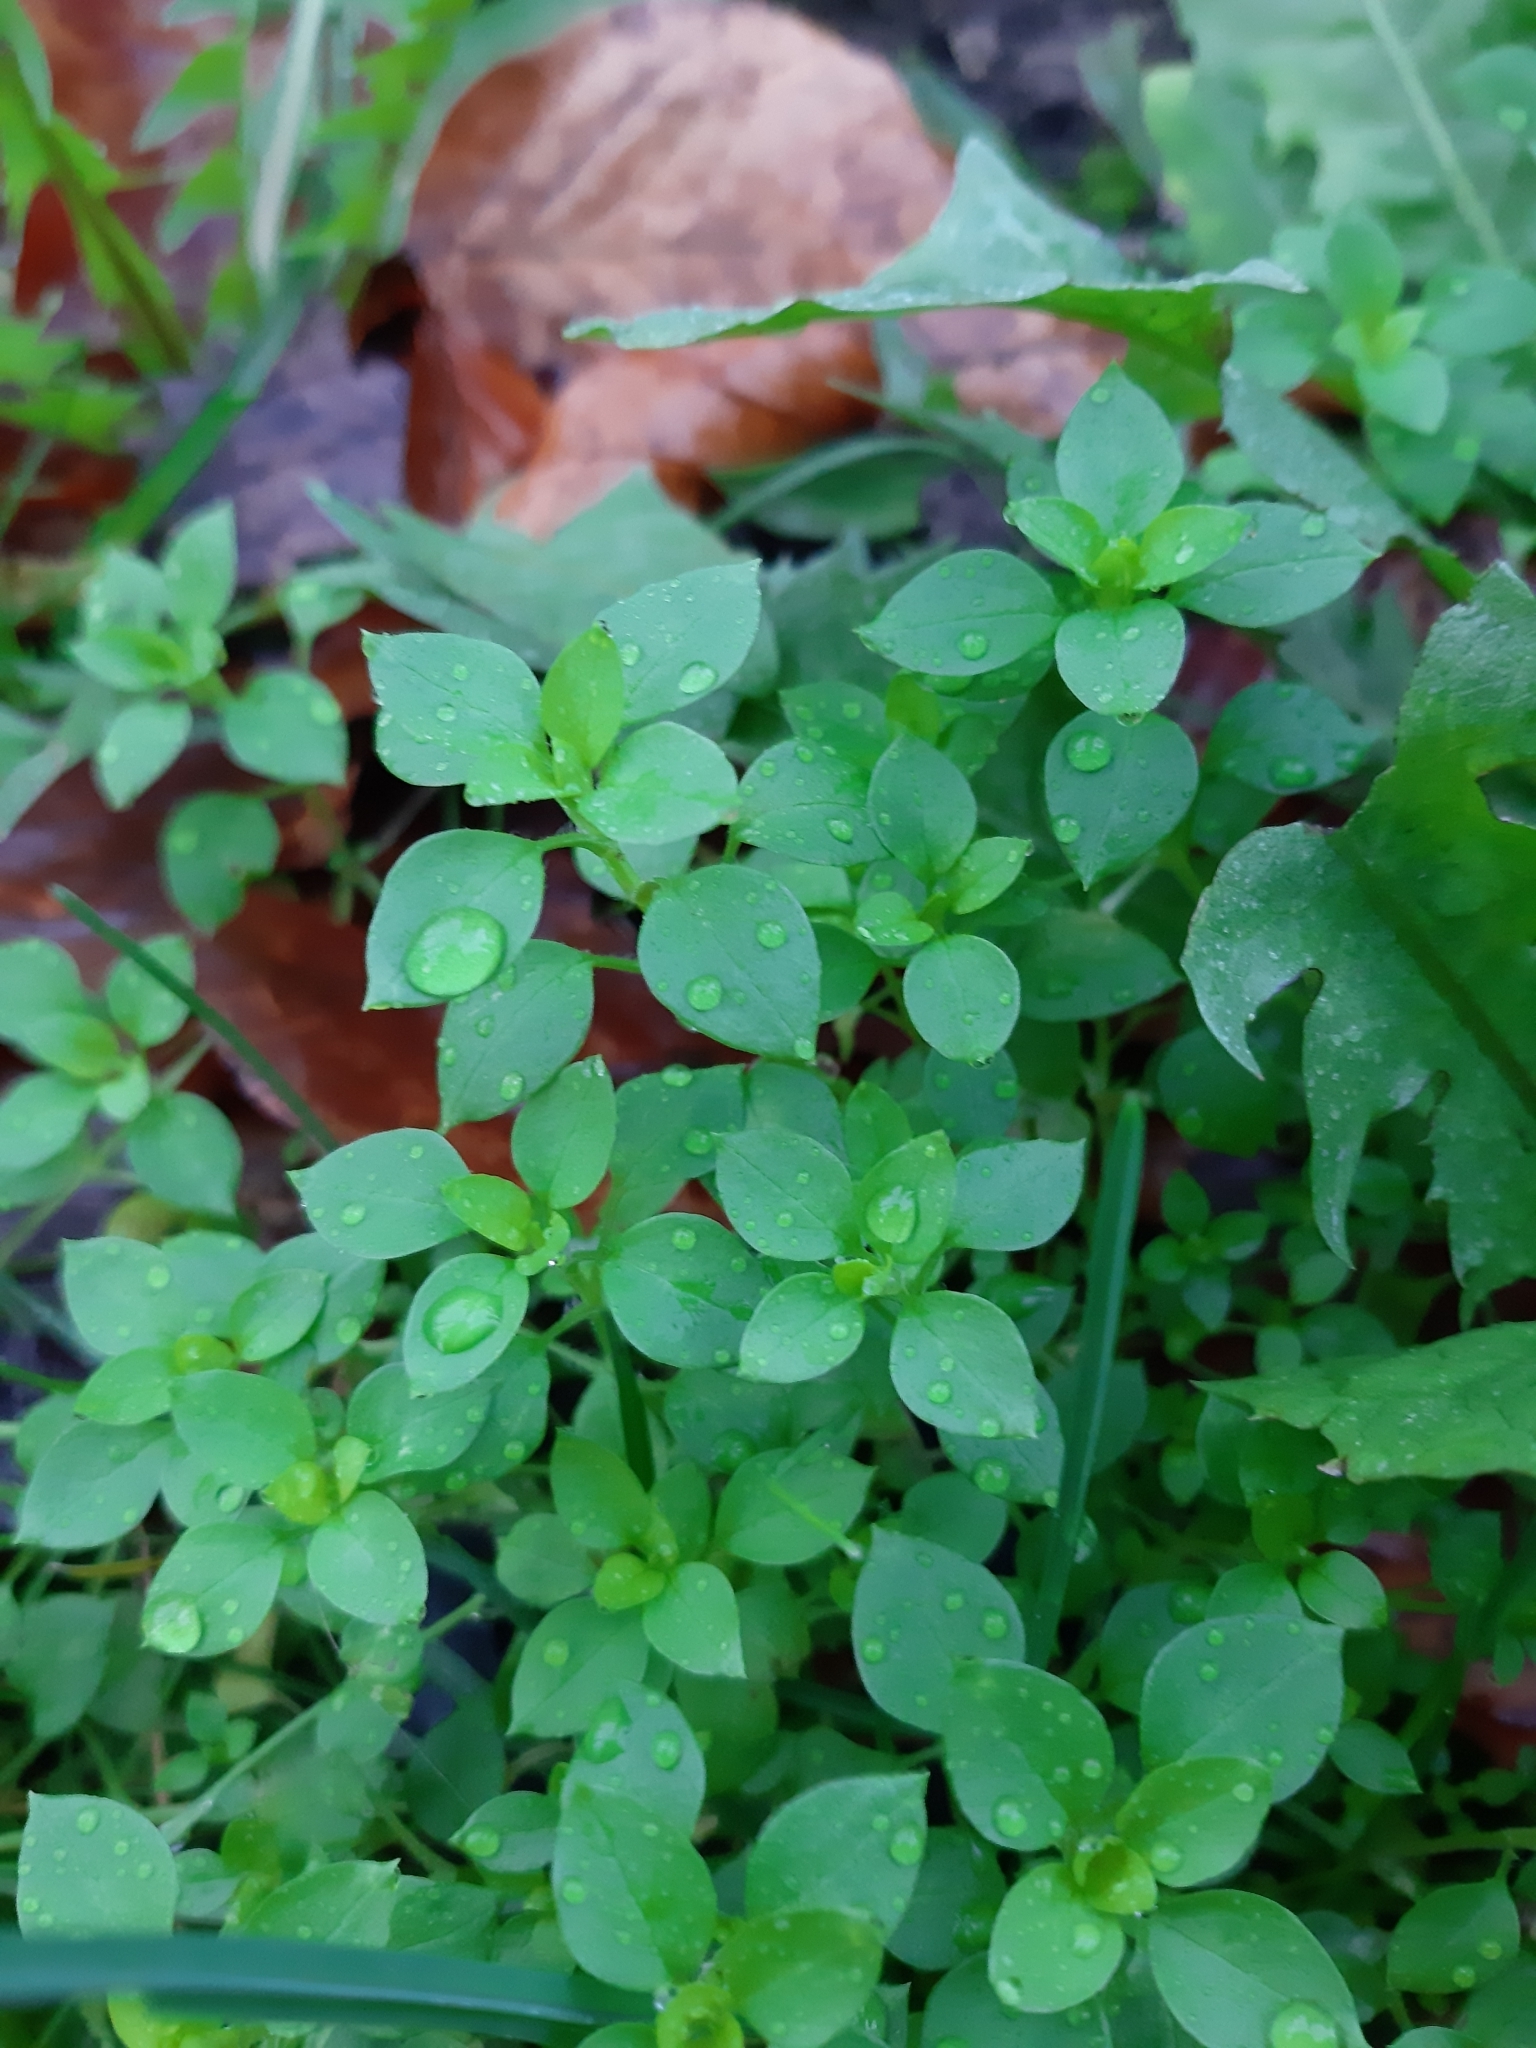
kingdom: Plantae
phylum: Tracheophyta
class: Magnoliopsida
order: Caryophyllales
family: Caryophyllaceae
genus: Stellaria
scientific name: Stellaria media
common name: Common chickweed
